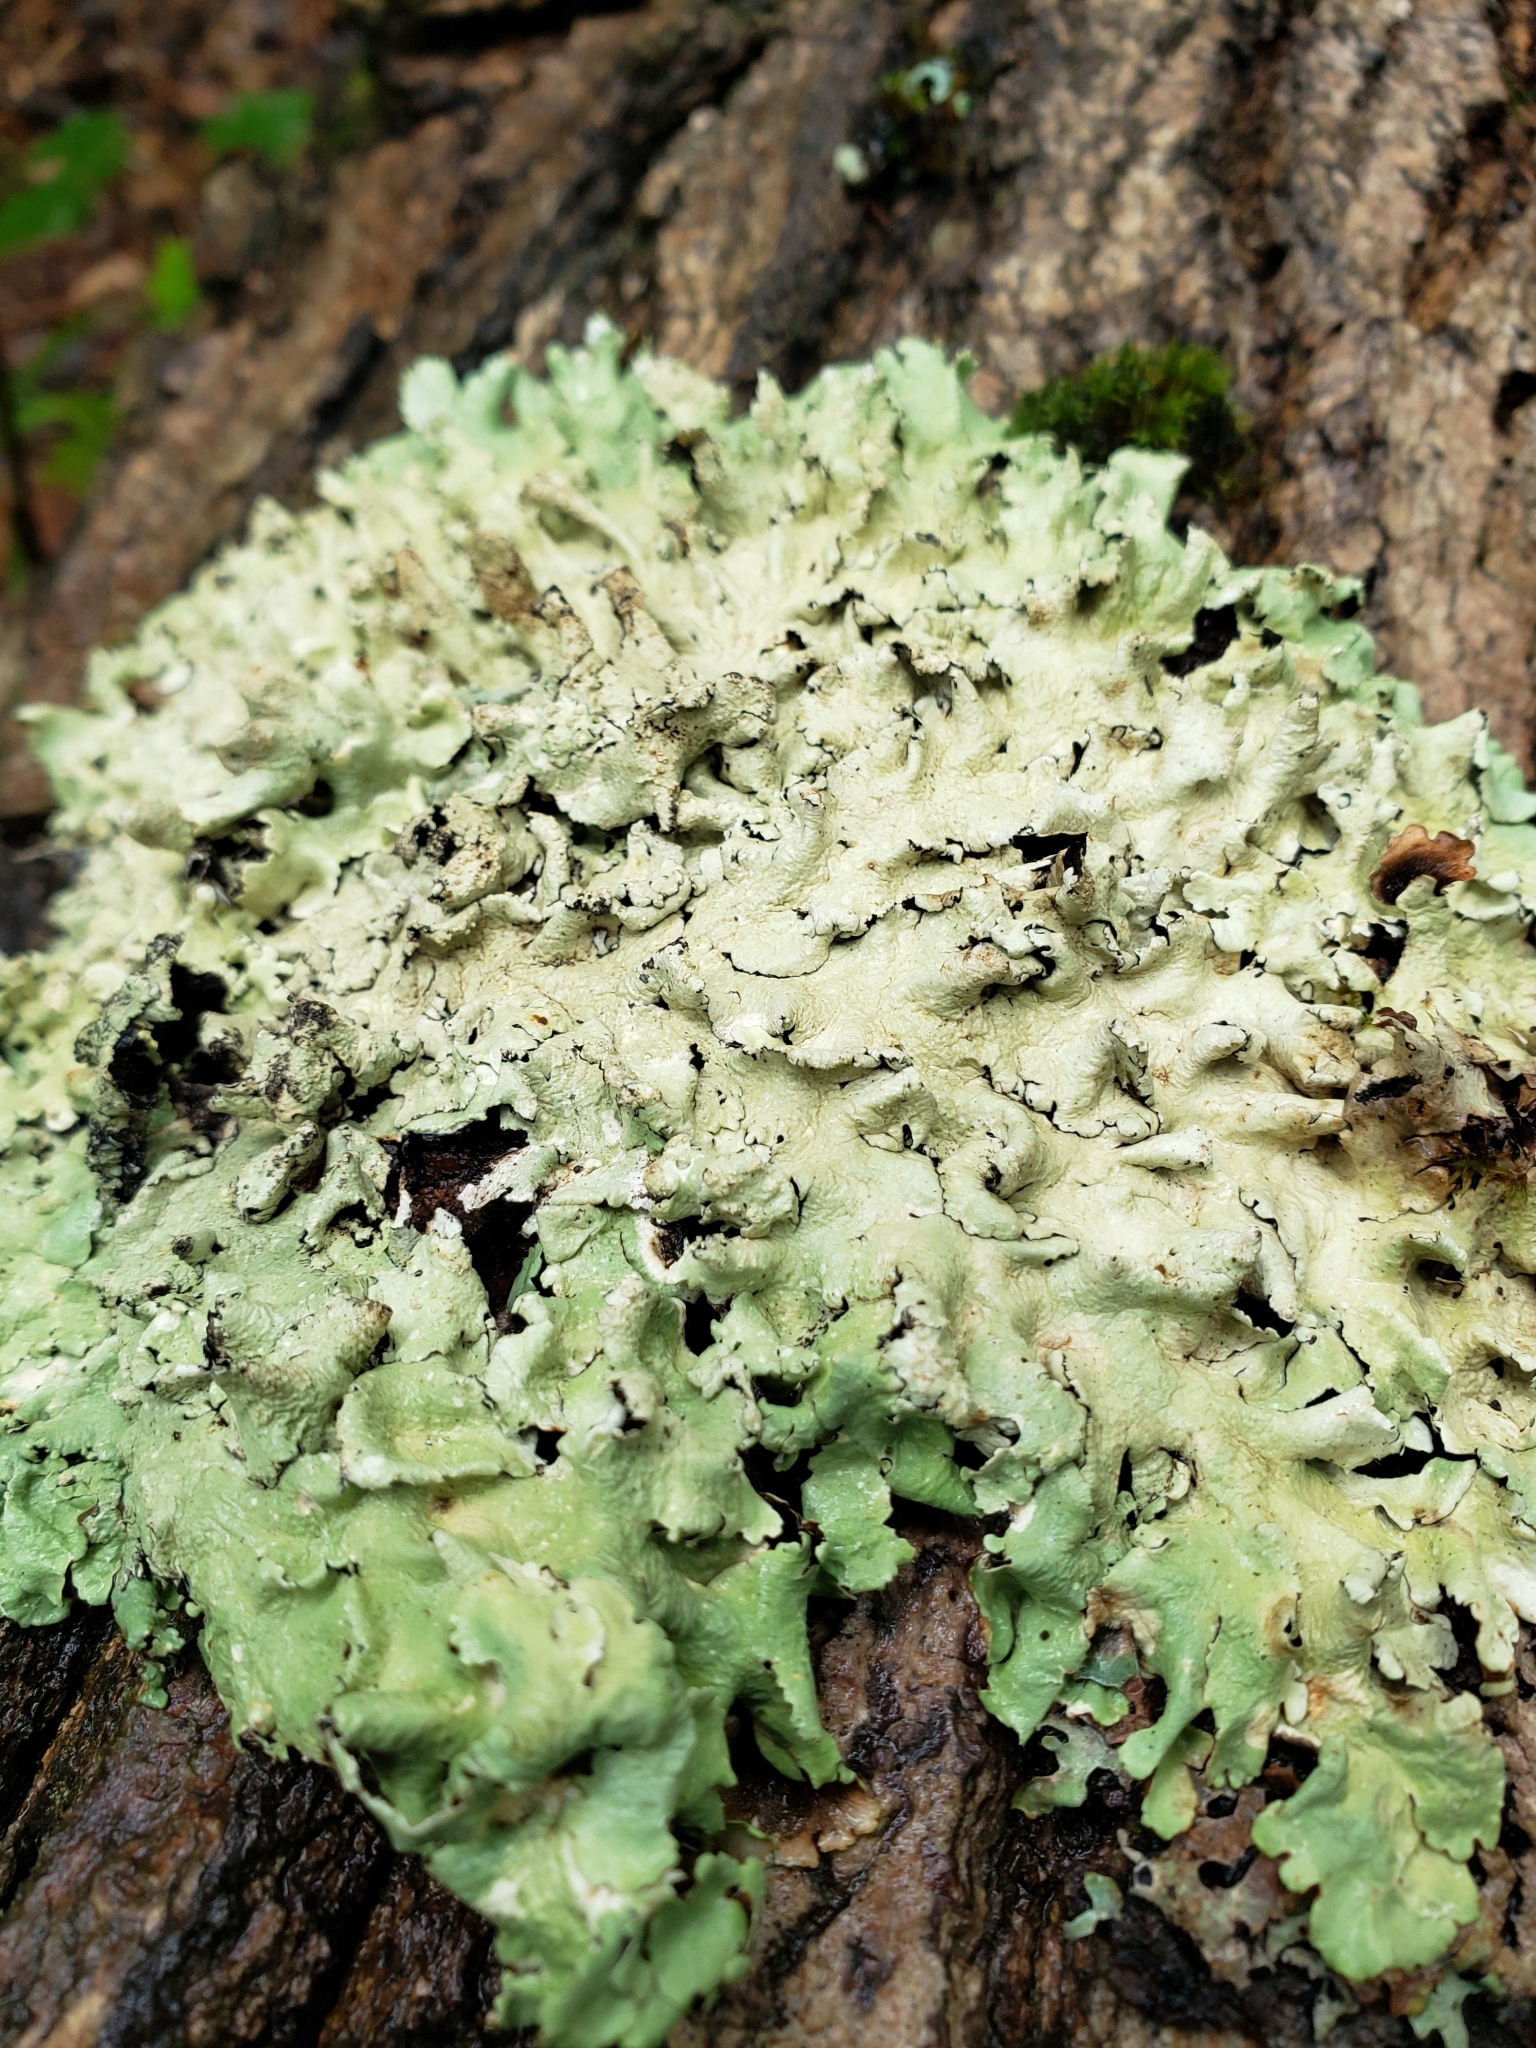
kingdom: Fungi
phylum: Ascomycota
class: Lecanoromycetes
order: Lecanorales
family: Parmeliaceae
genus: Flavoparmelia
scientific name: Flavoparmelia caperata
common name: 40-mile per hour lichen
